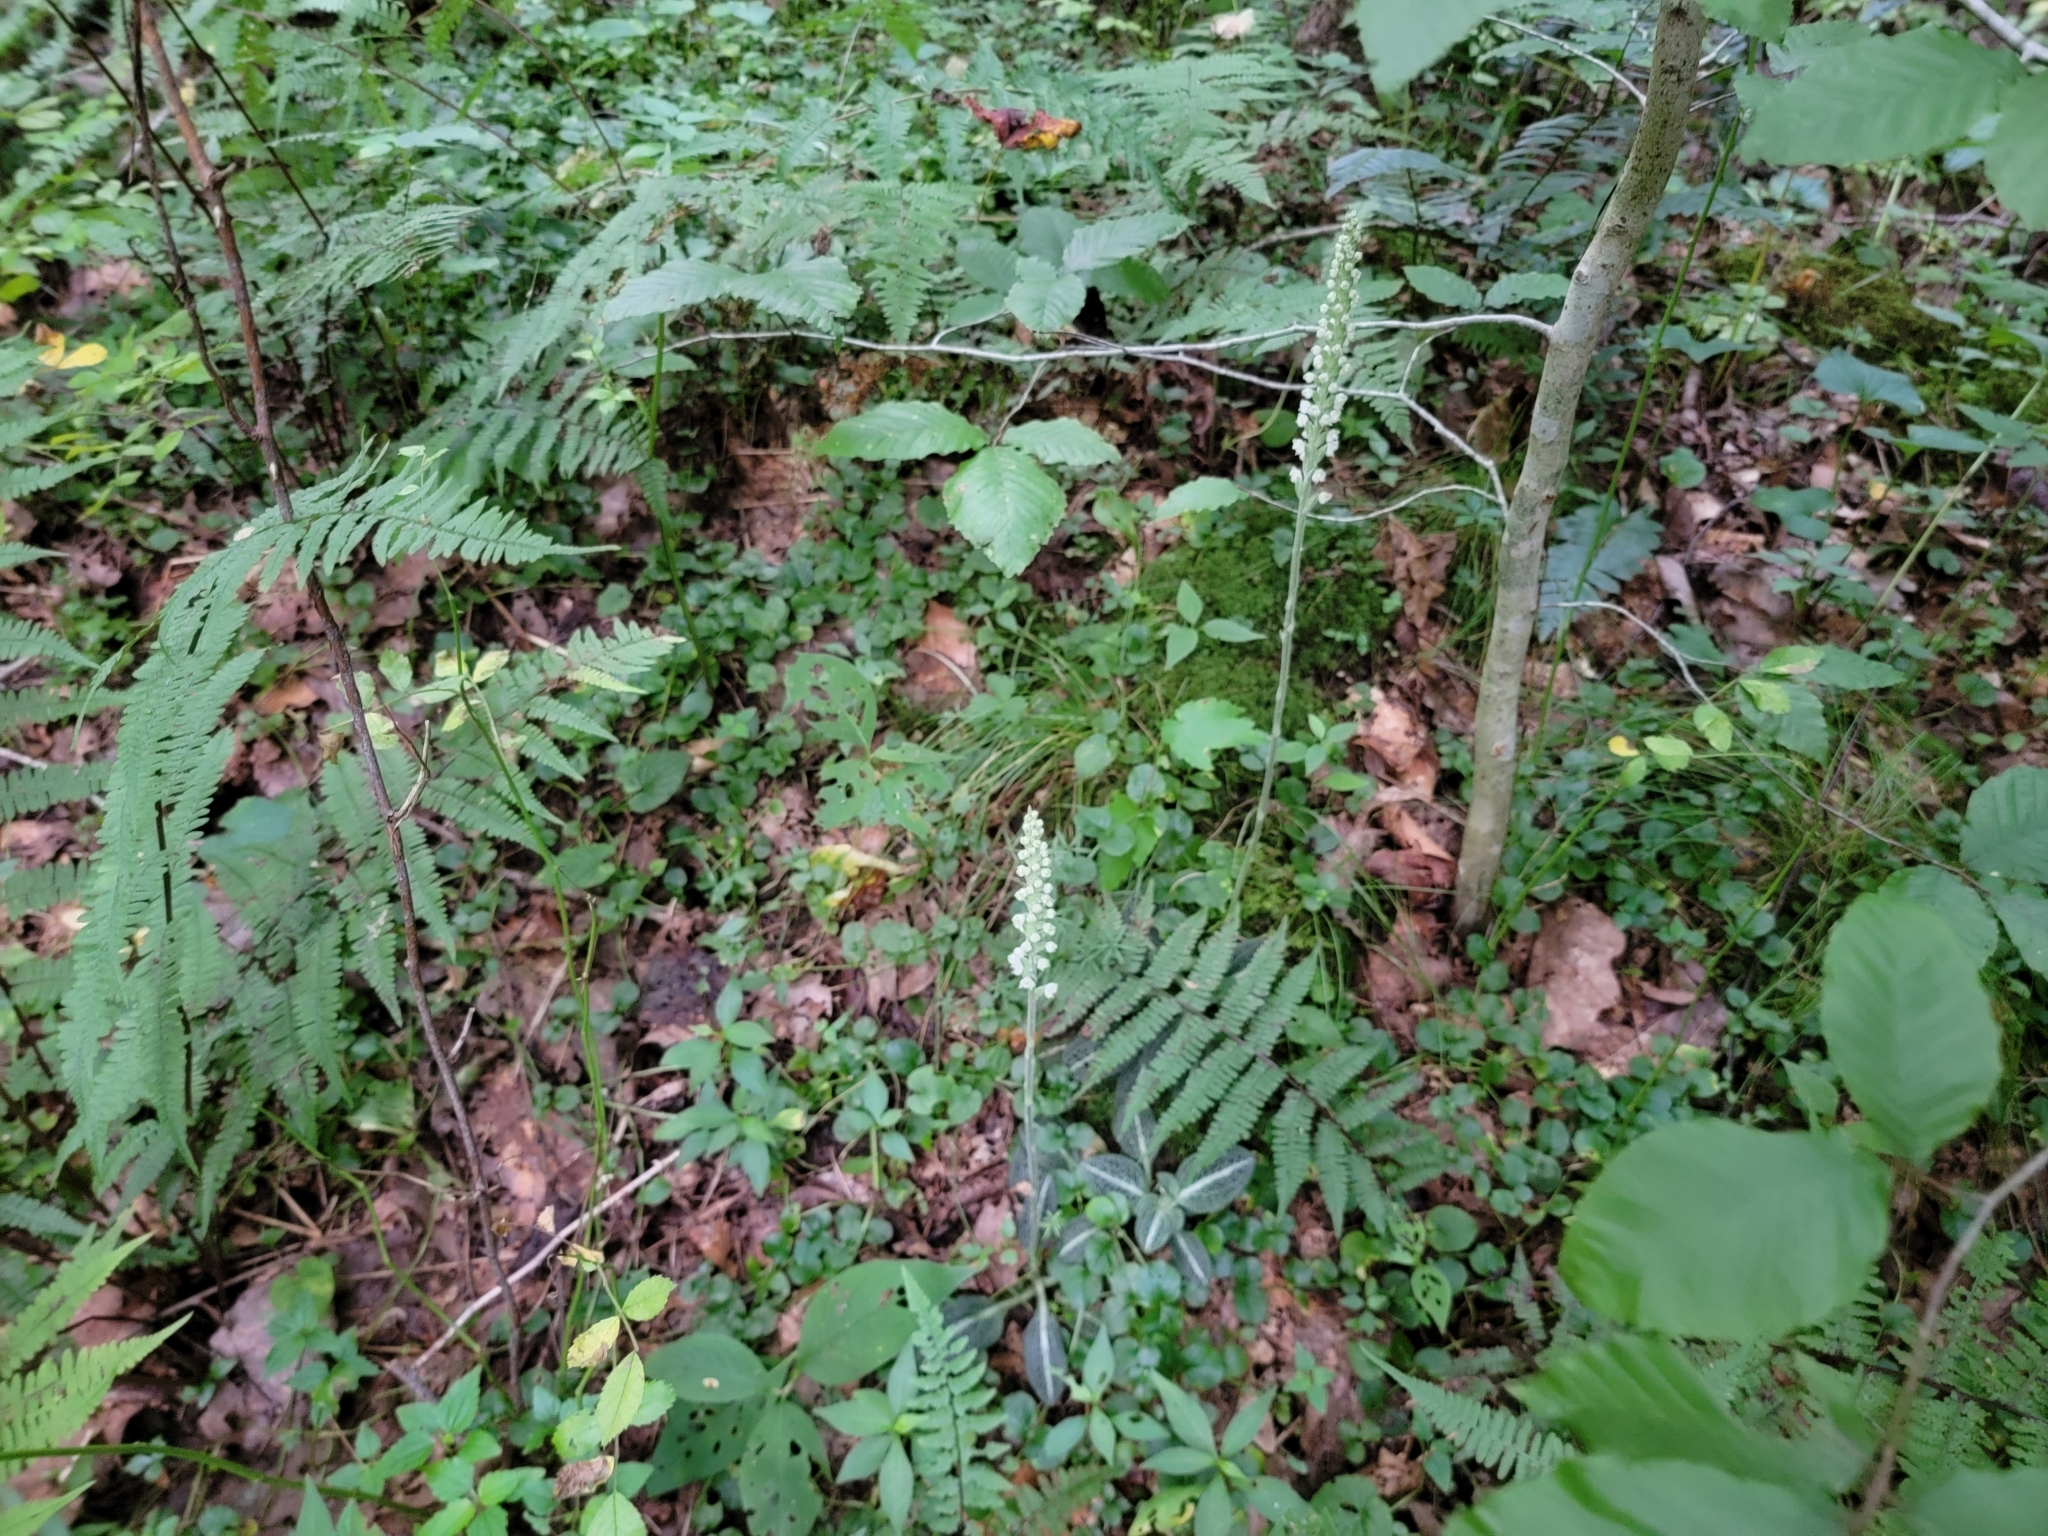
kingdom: Plantae
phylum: Tracheophyta
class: Liliopsida
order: Asparagales
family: Orchidaceae
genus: Goodyera
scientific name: Goodyera pubescens
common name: Downy rattlesnake-plantain
